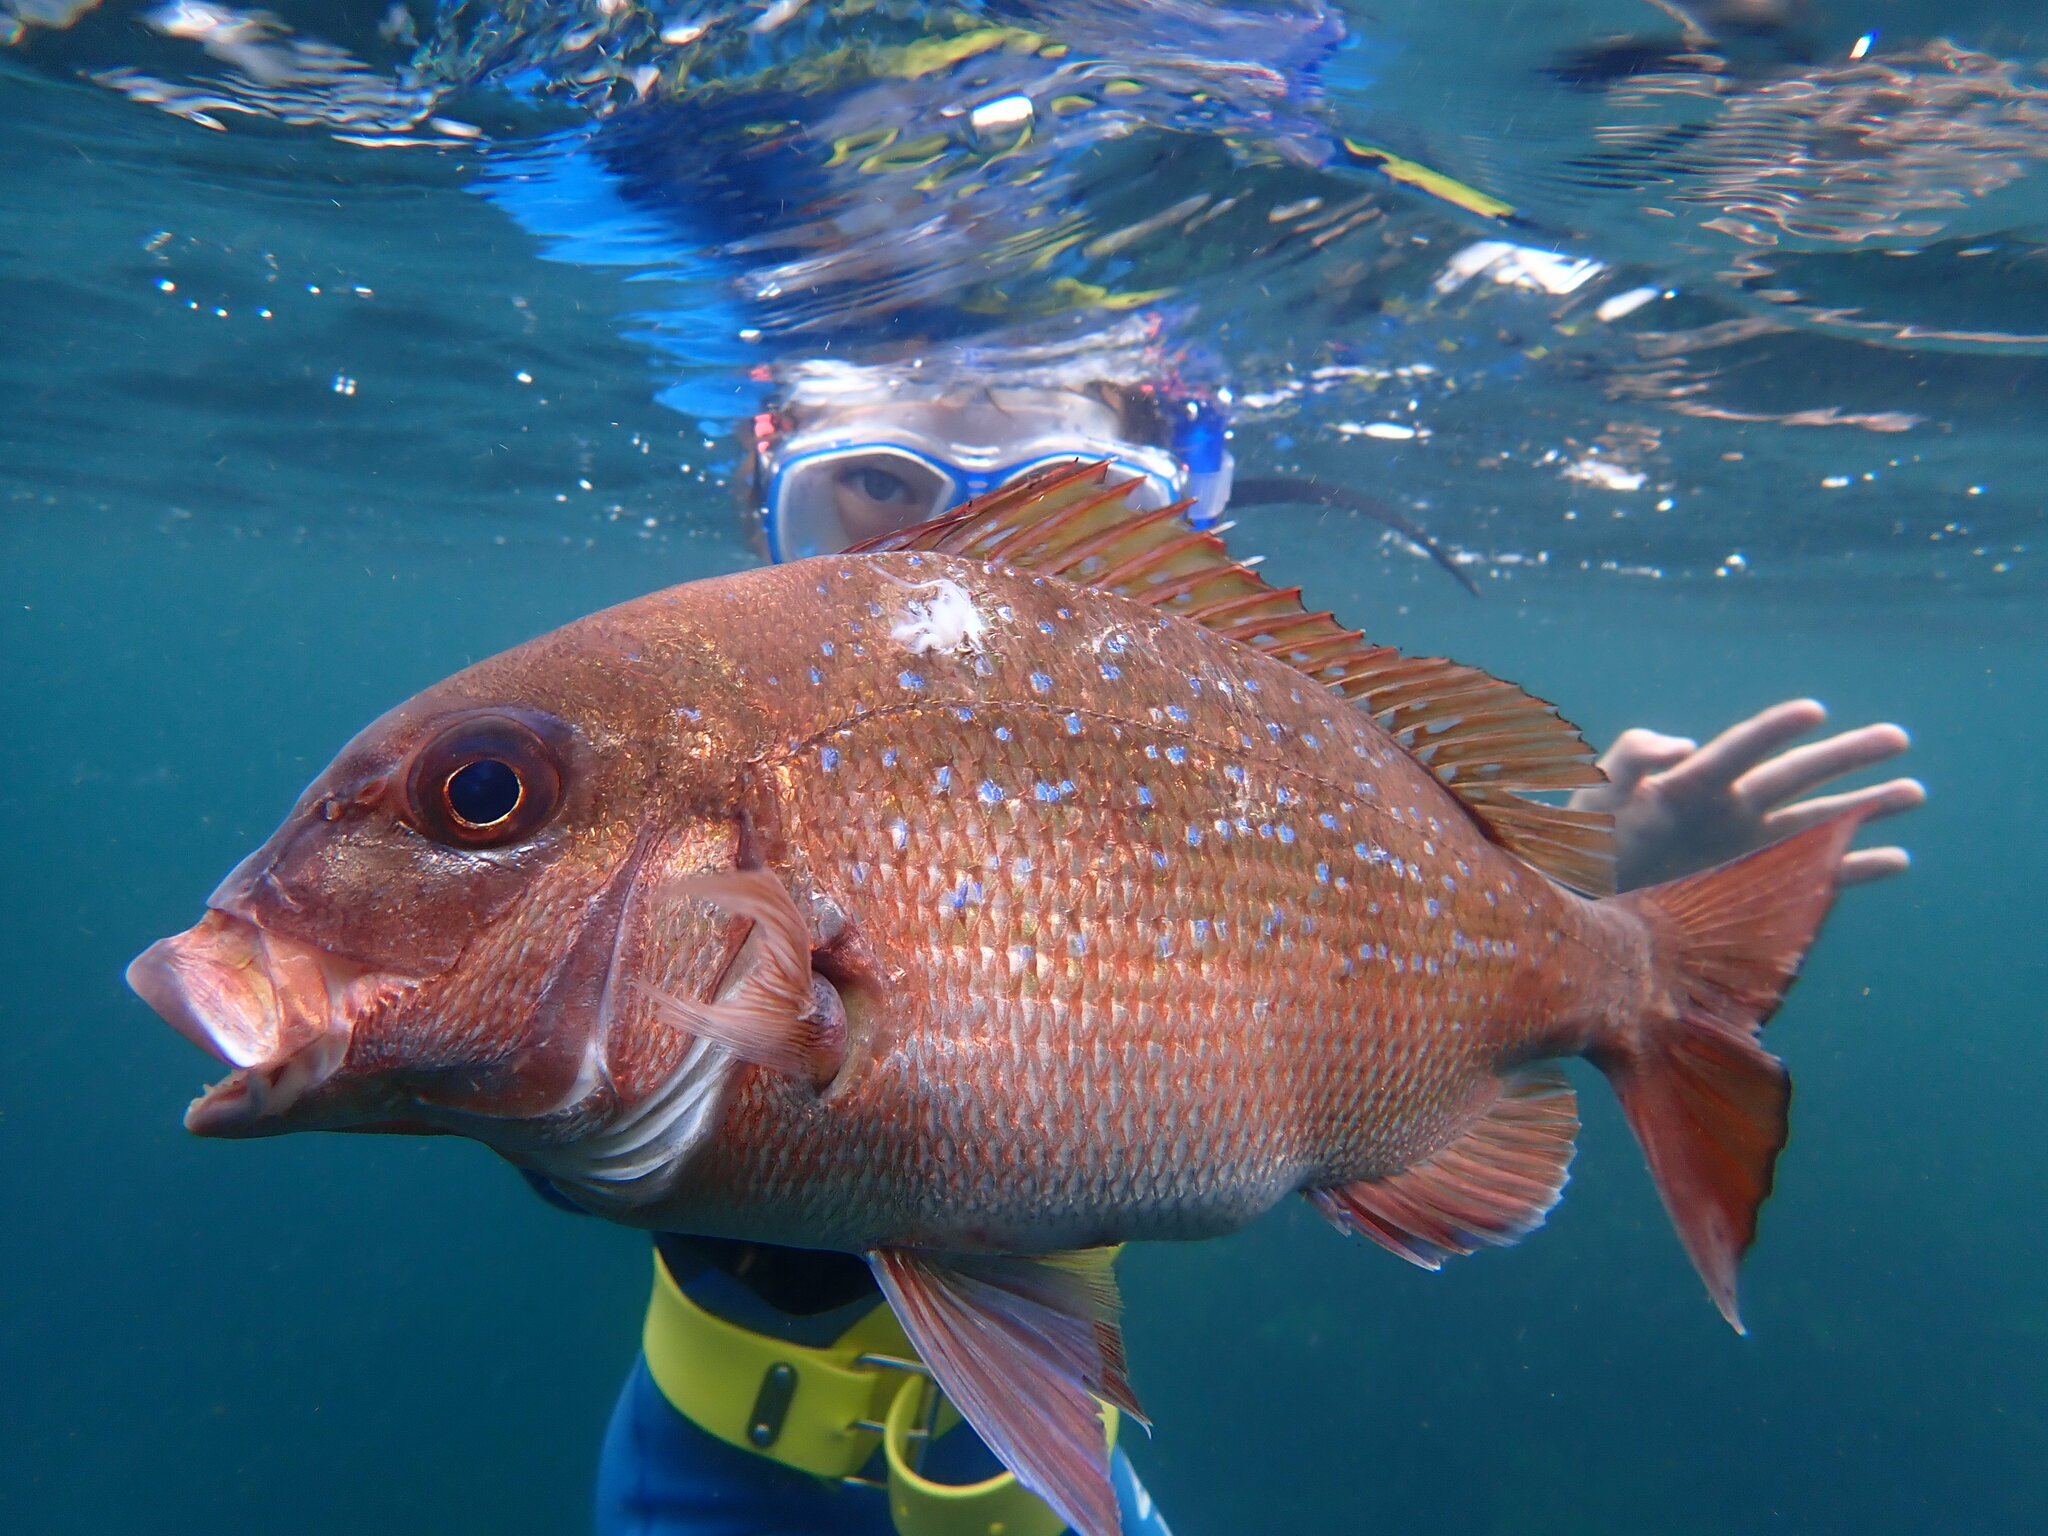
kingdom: Animalia
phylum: Chordata
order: Perciformes
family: Sparidae
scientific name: Sparidae
